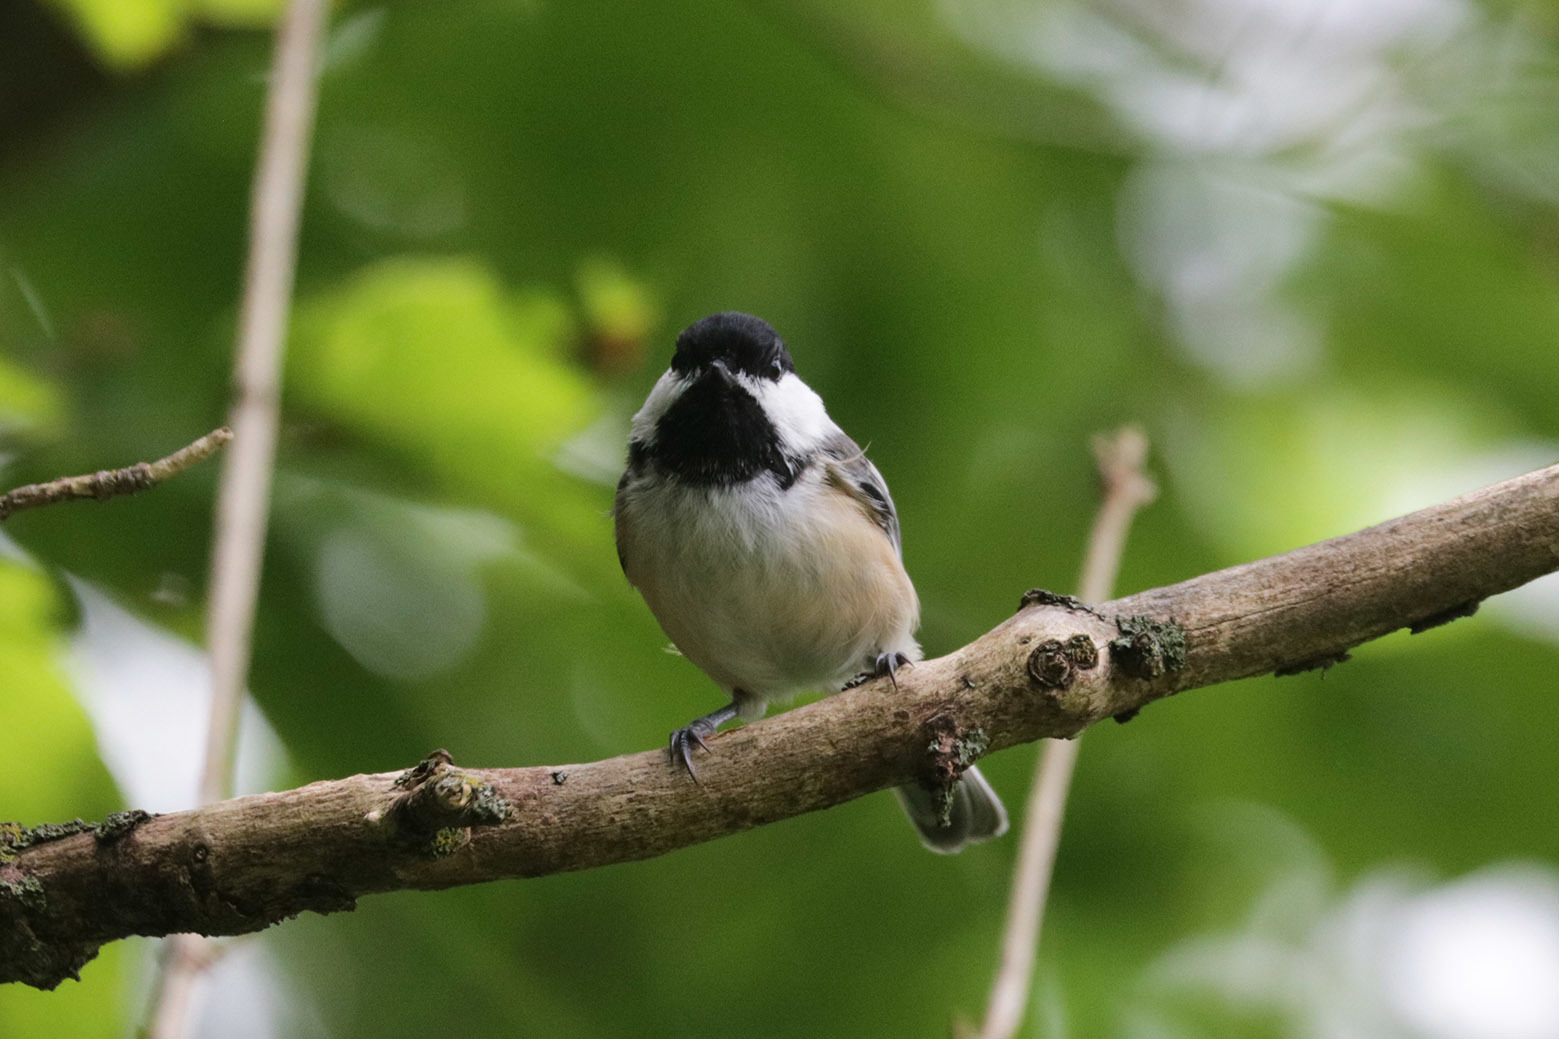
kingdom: Animalia
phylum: Chordata
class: Aves
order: Passeriformes
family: Paridae
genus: Poecile
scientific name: Poecile atricapillus
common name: Black-capped chickadee
